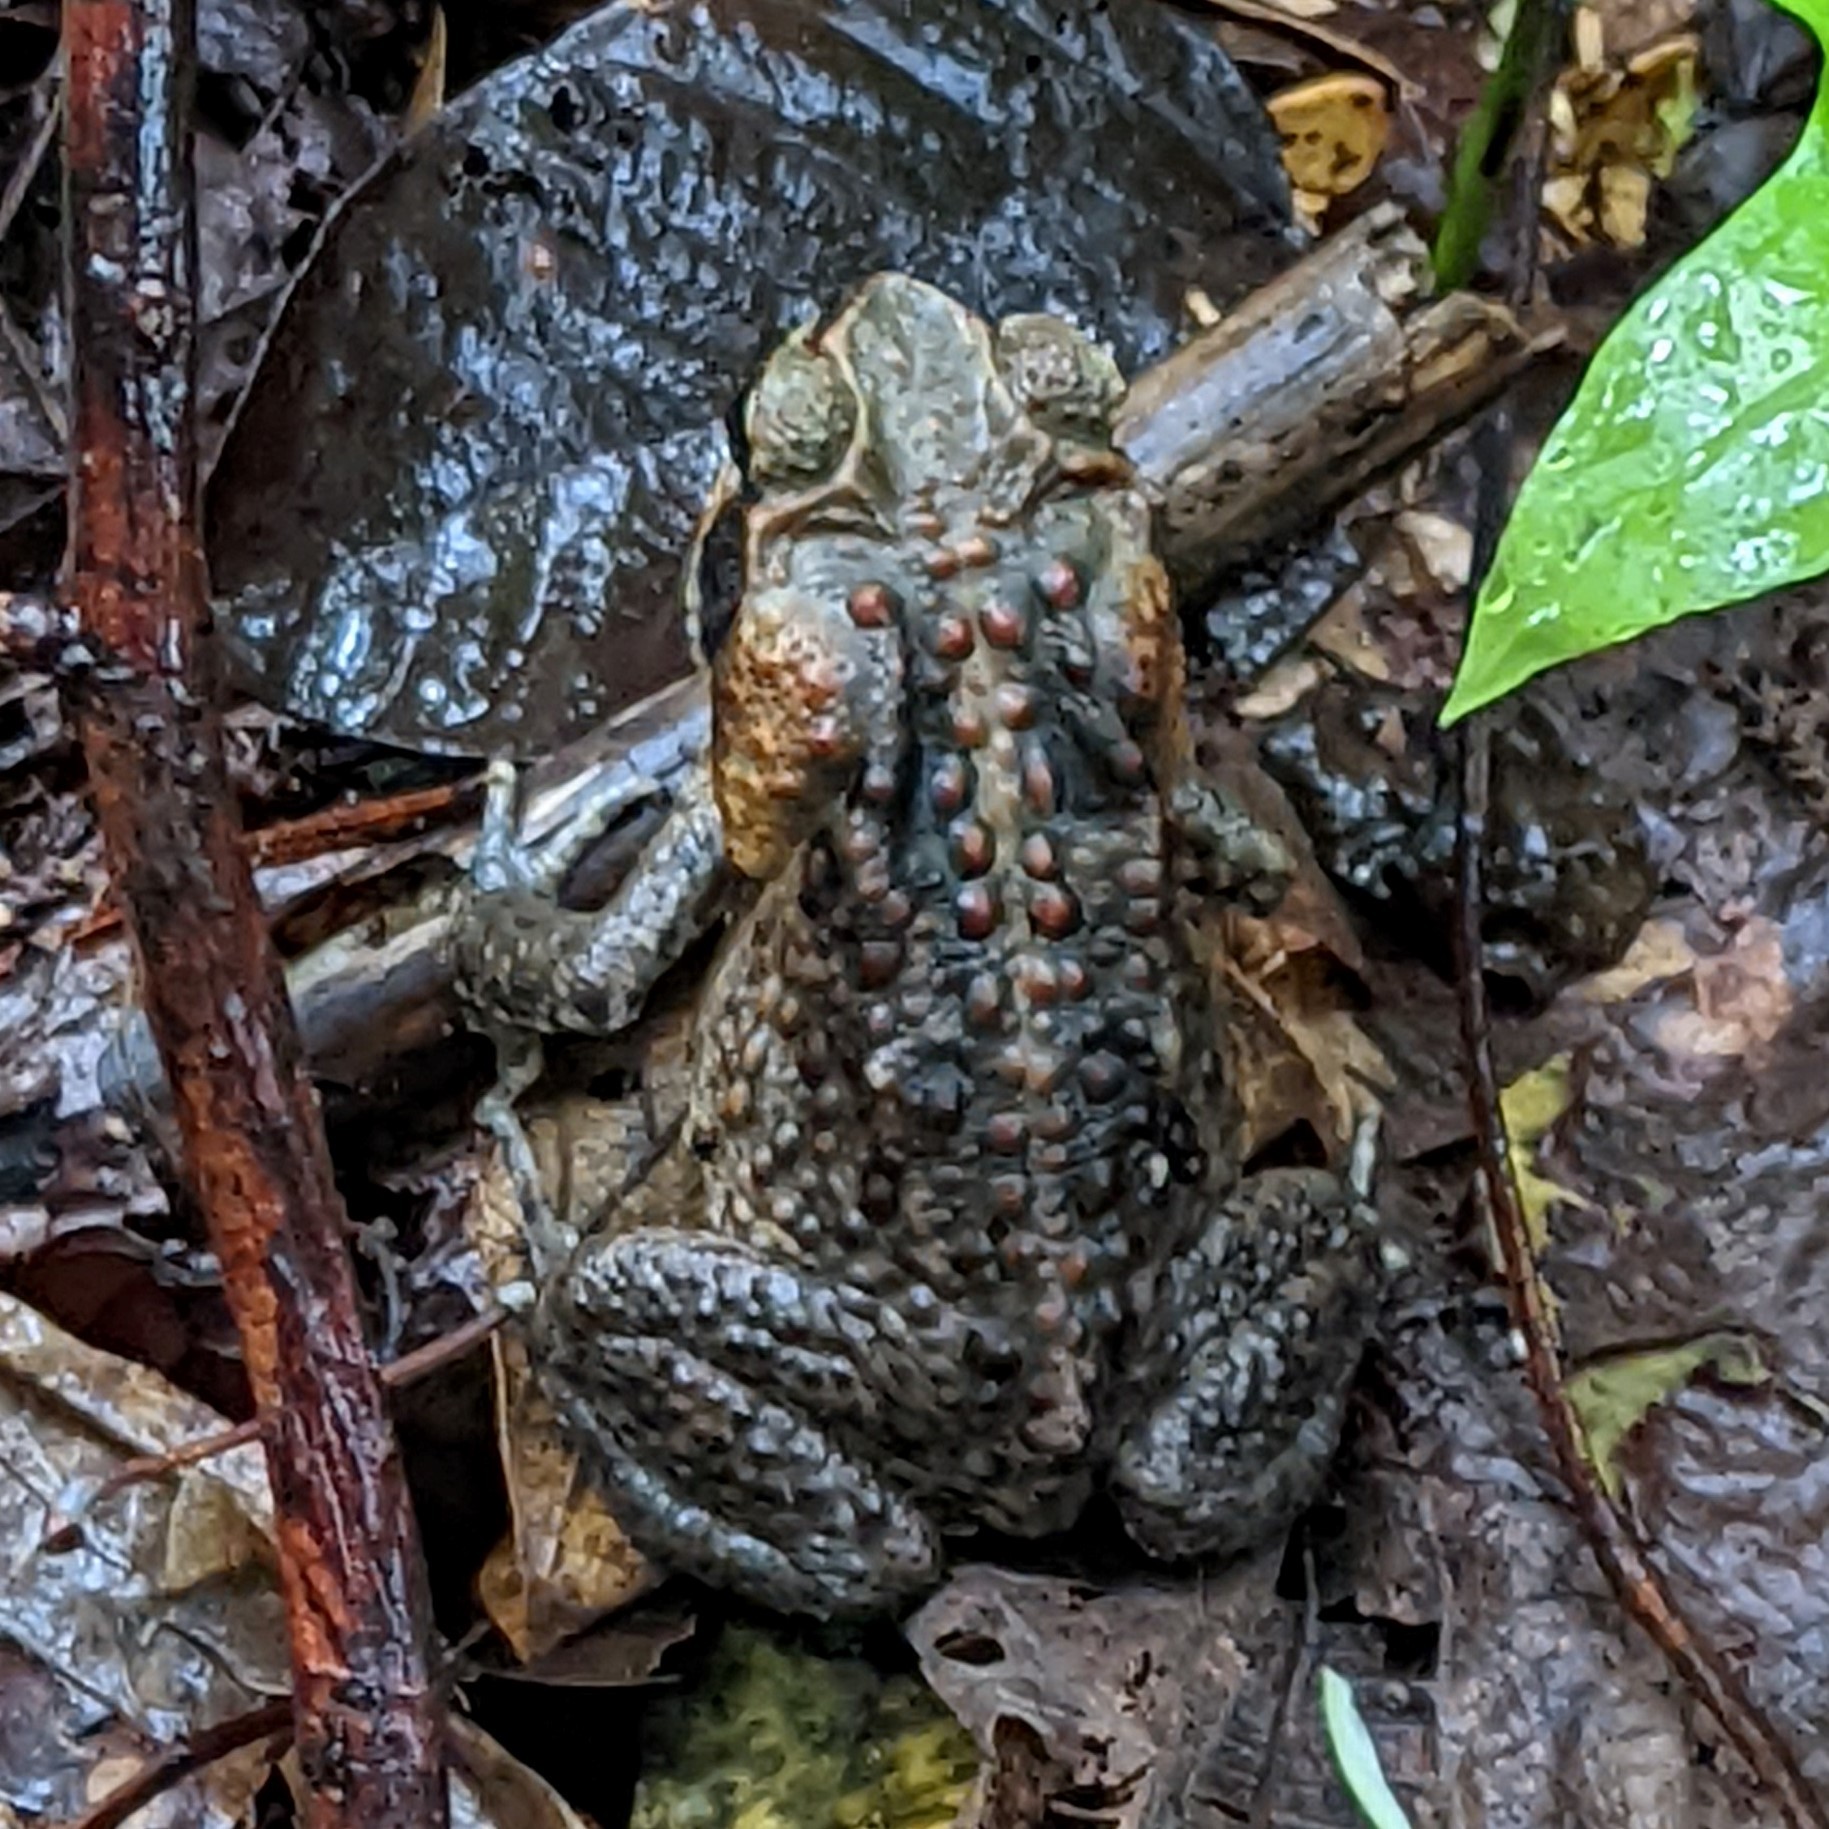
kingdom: Animalia
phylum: Chordata
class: Amphibia
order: Anura
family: Bufonidae
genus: Rhinella
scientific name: Rhinella marina
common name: Cane toad
